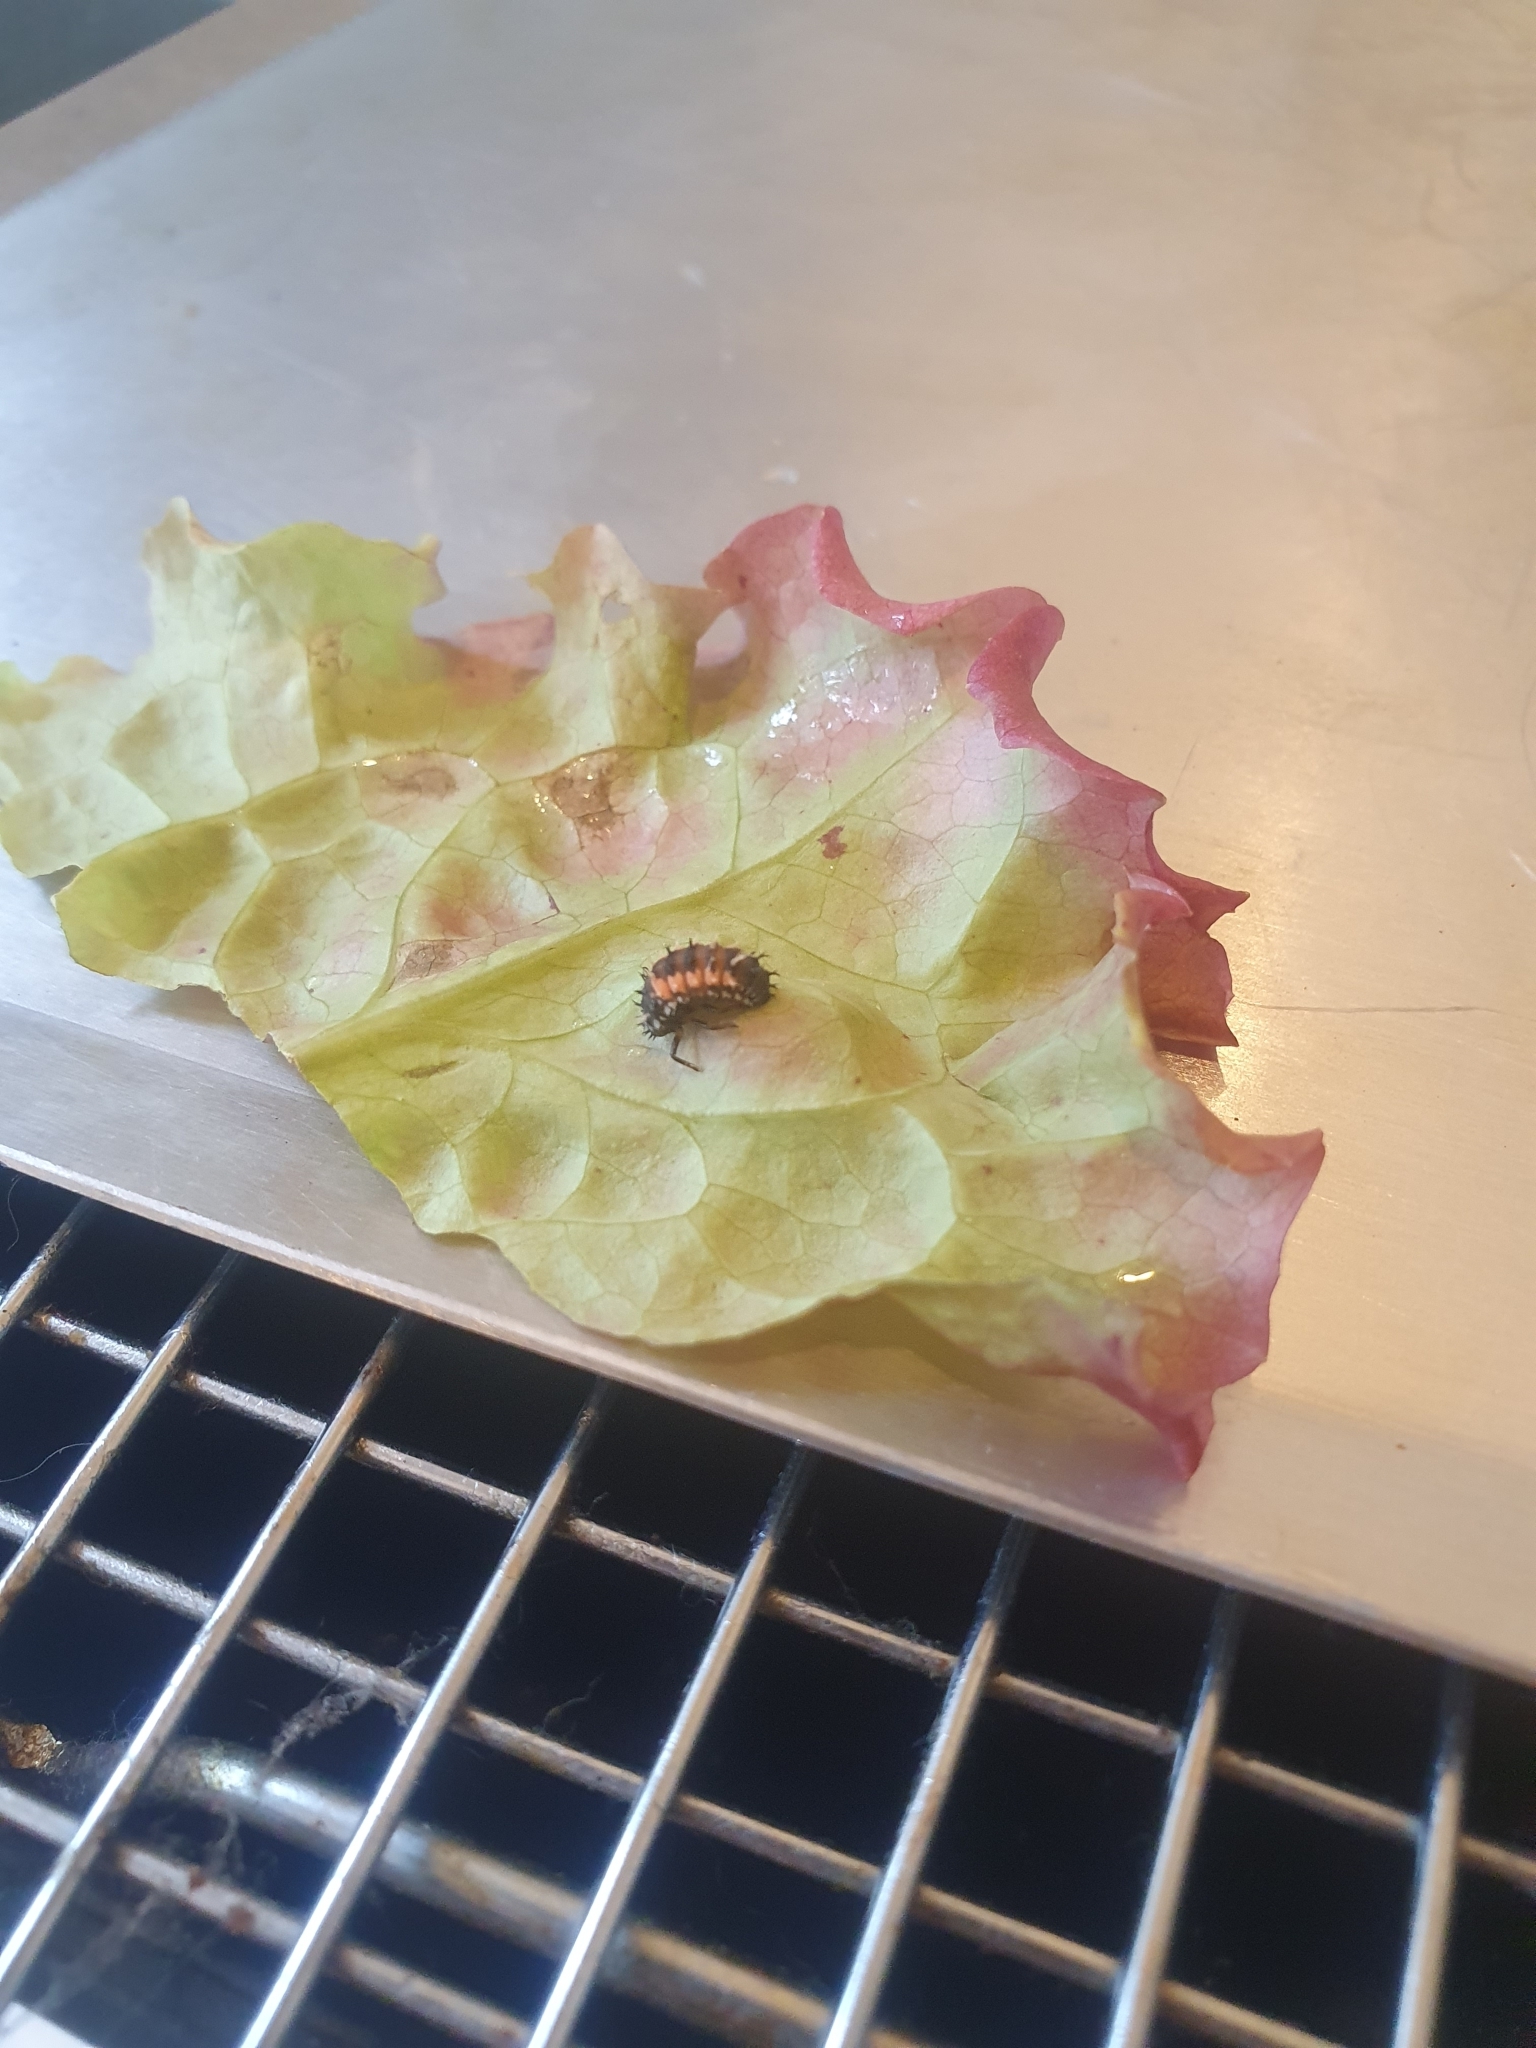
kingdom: Animalia
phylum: Arthropoda
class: Insecta
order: Coleoptera
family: Coccinellidae
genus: Harmonia
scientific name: Harmonia axyridis
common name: Harlequin ladybird
